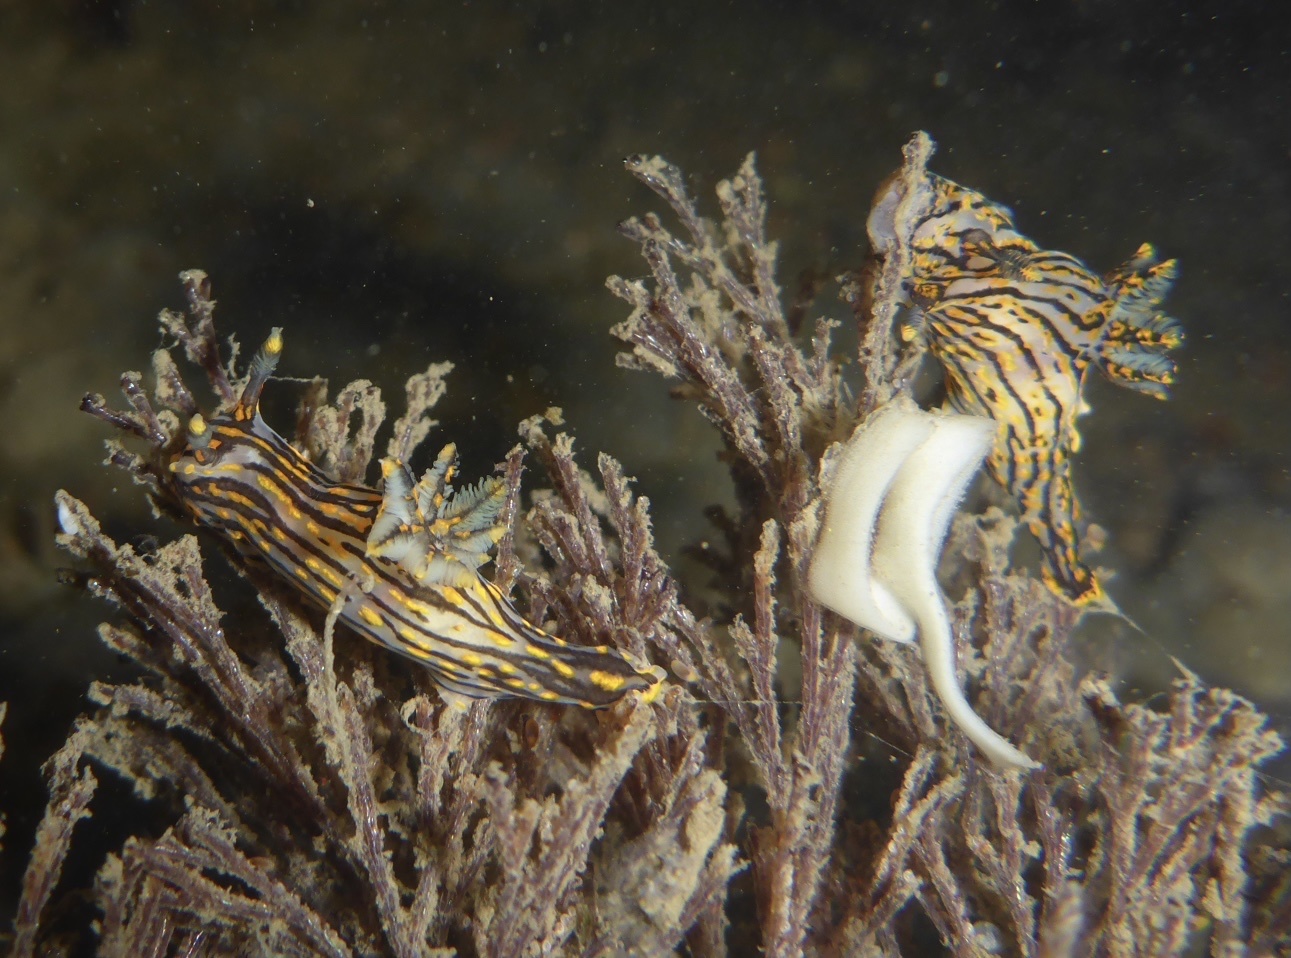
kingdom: Animalia
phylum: Mollusca
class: Gastropoda
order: Nudibranchia
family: Polyceridae
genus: Polycera
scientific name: Polycera atra
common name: Orange-spike polycera
